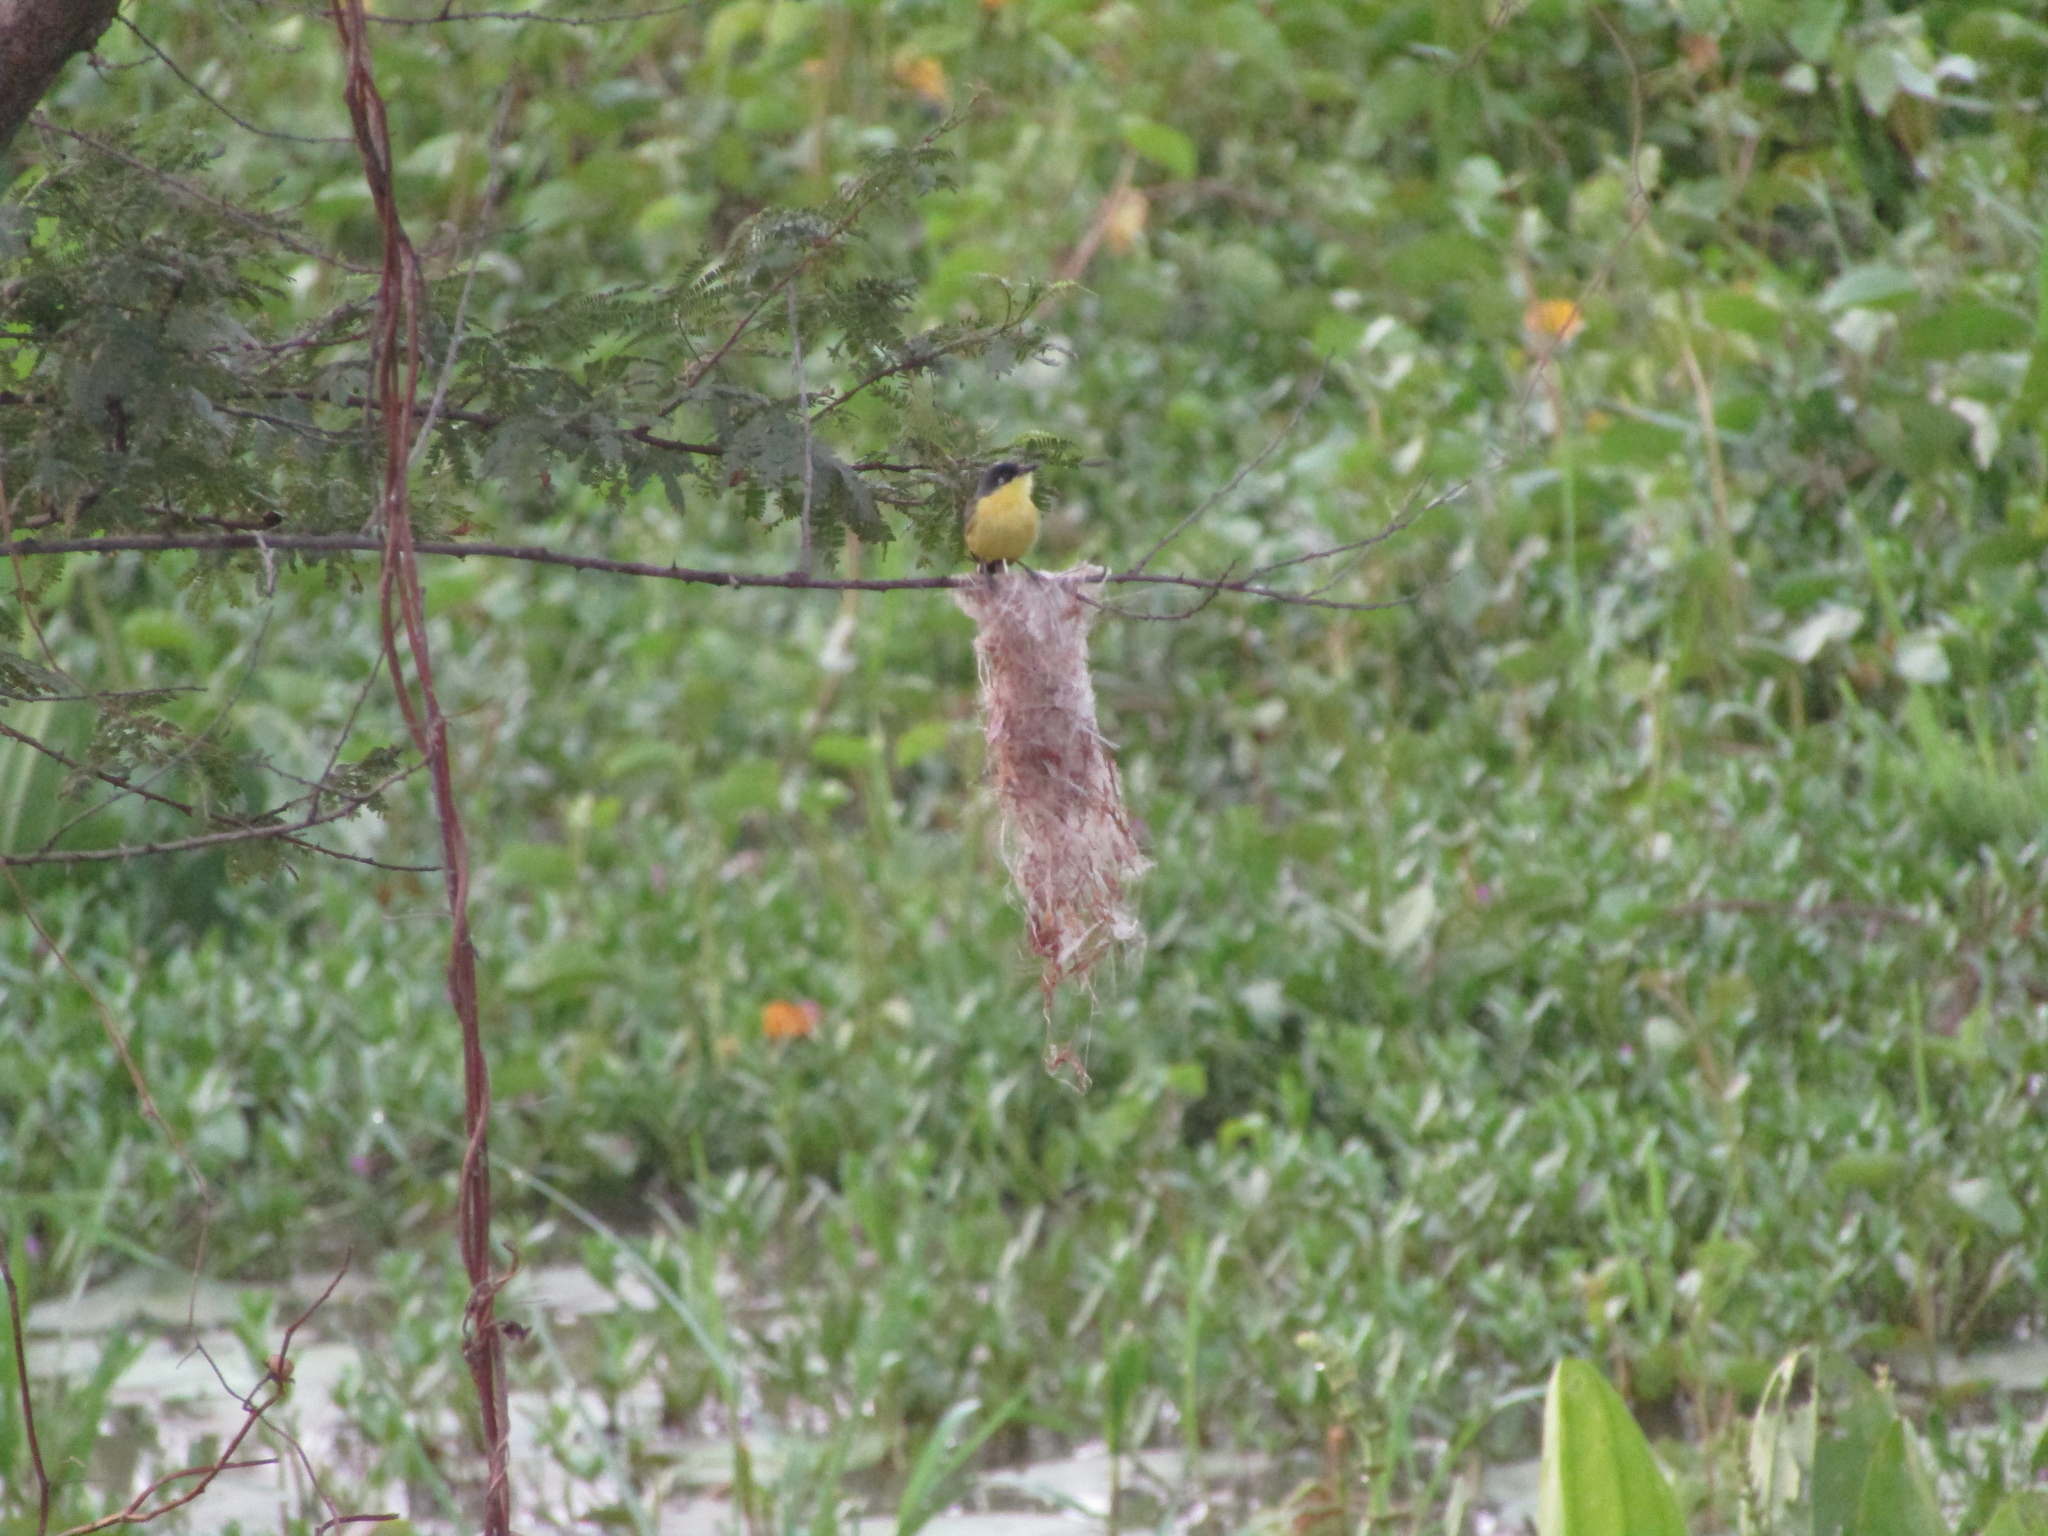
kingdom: Animalia
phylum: Chordata
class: Aves
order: Passeriformes
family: Tyrannidae
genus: Todirostrum
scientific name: Todirostrum cinereum
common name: Common tody-flycatcher
